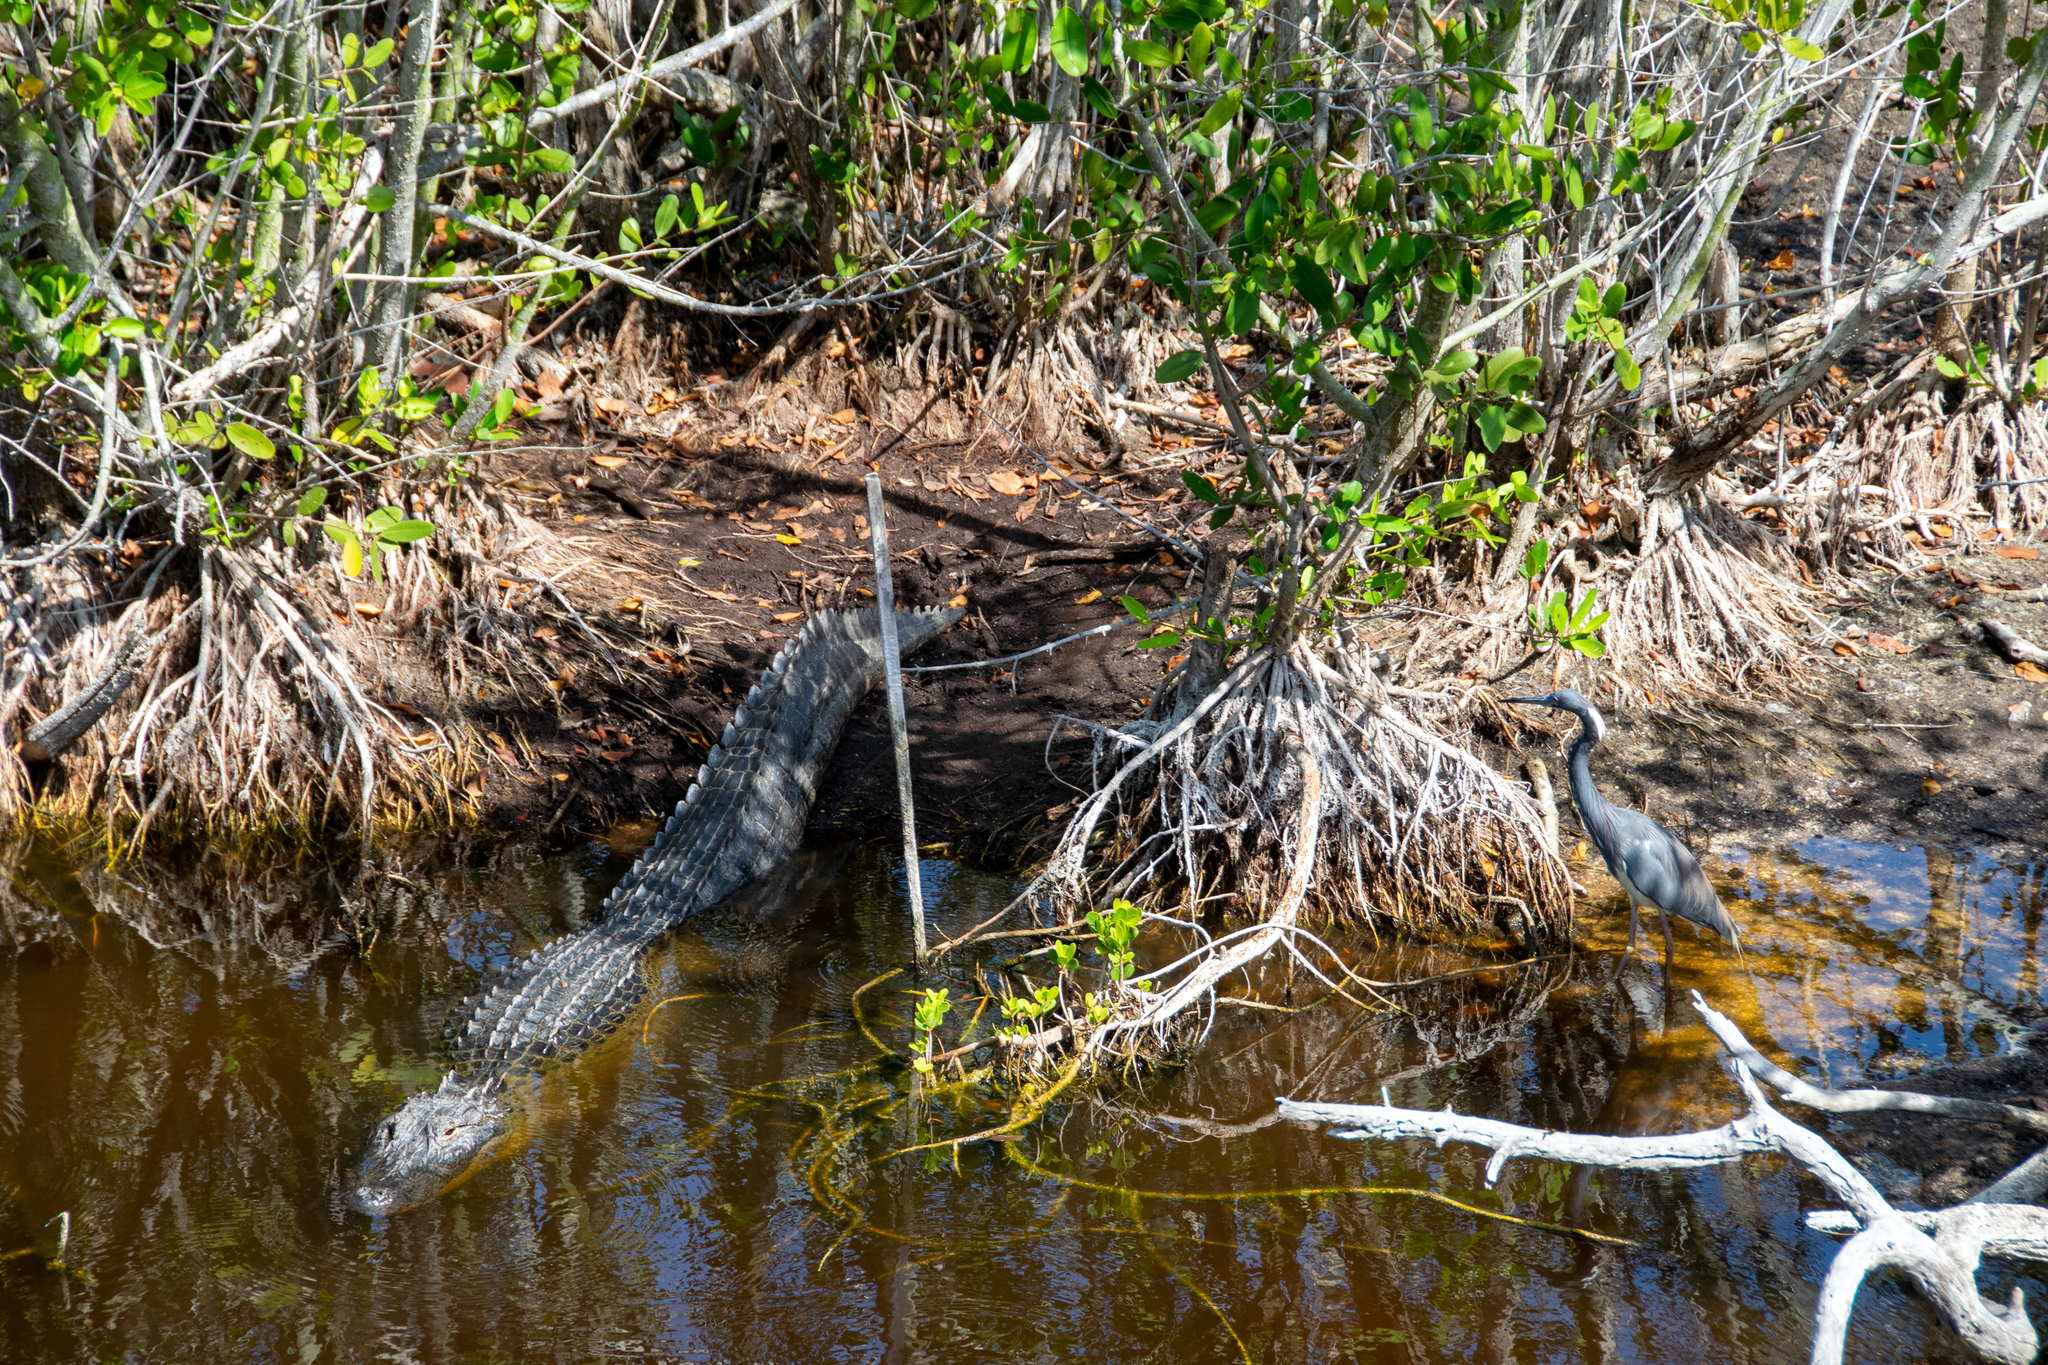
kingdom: Animalia
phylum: Chordata
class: Crocodylia
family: Alligatoridae
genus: Alligator
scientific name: Alligator mississippiensis
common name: American alligator
